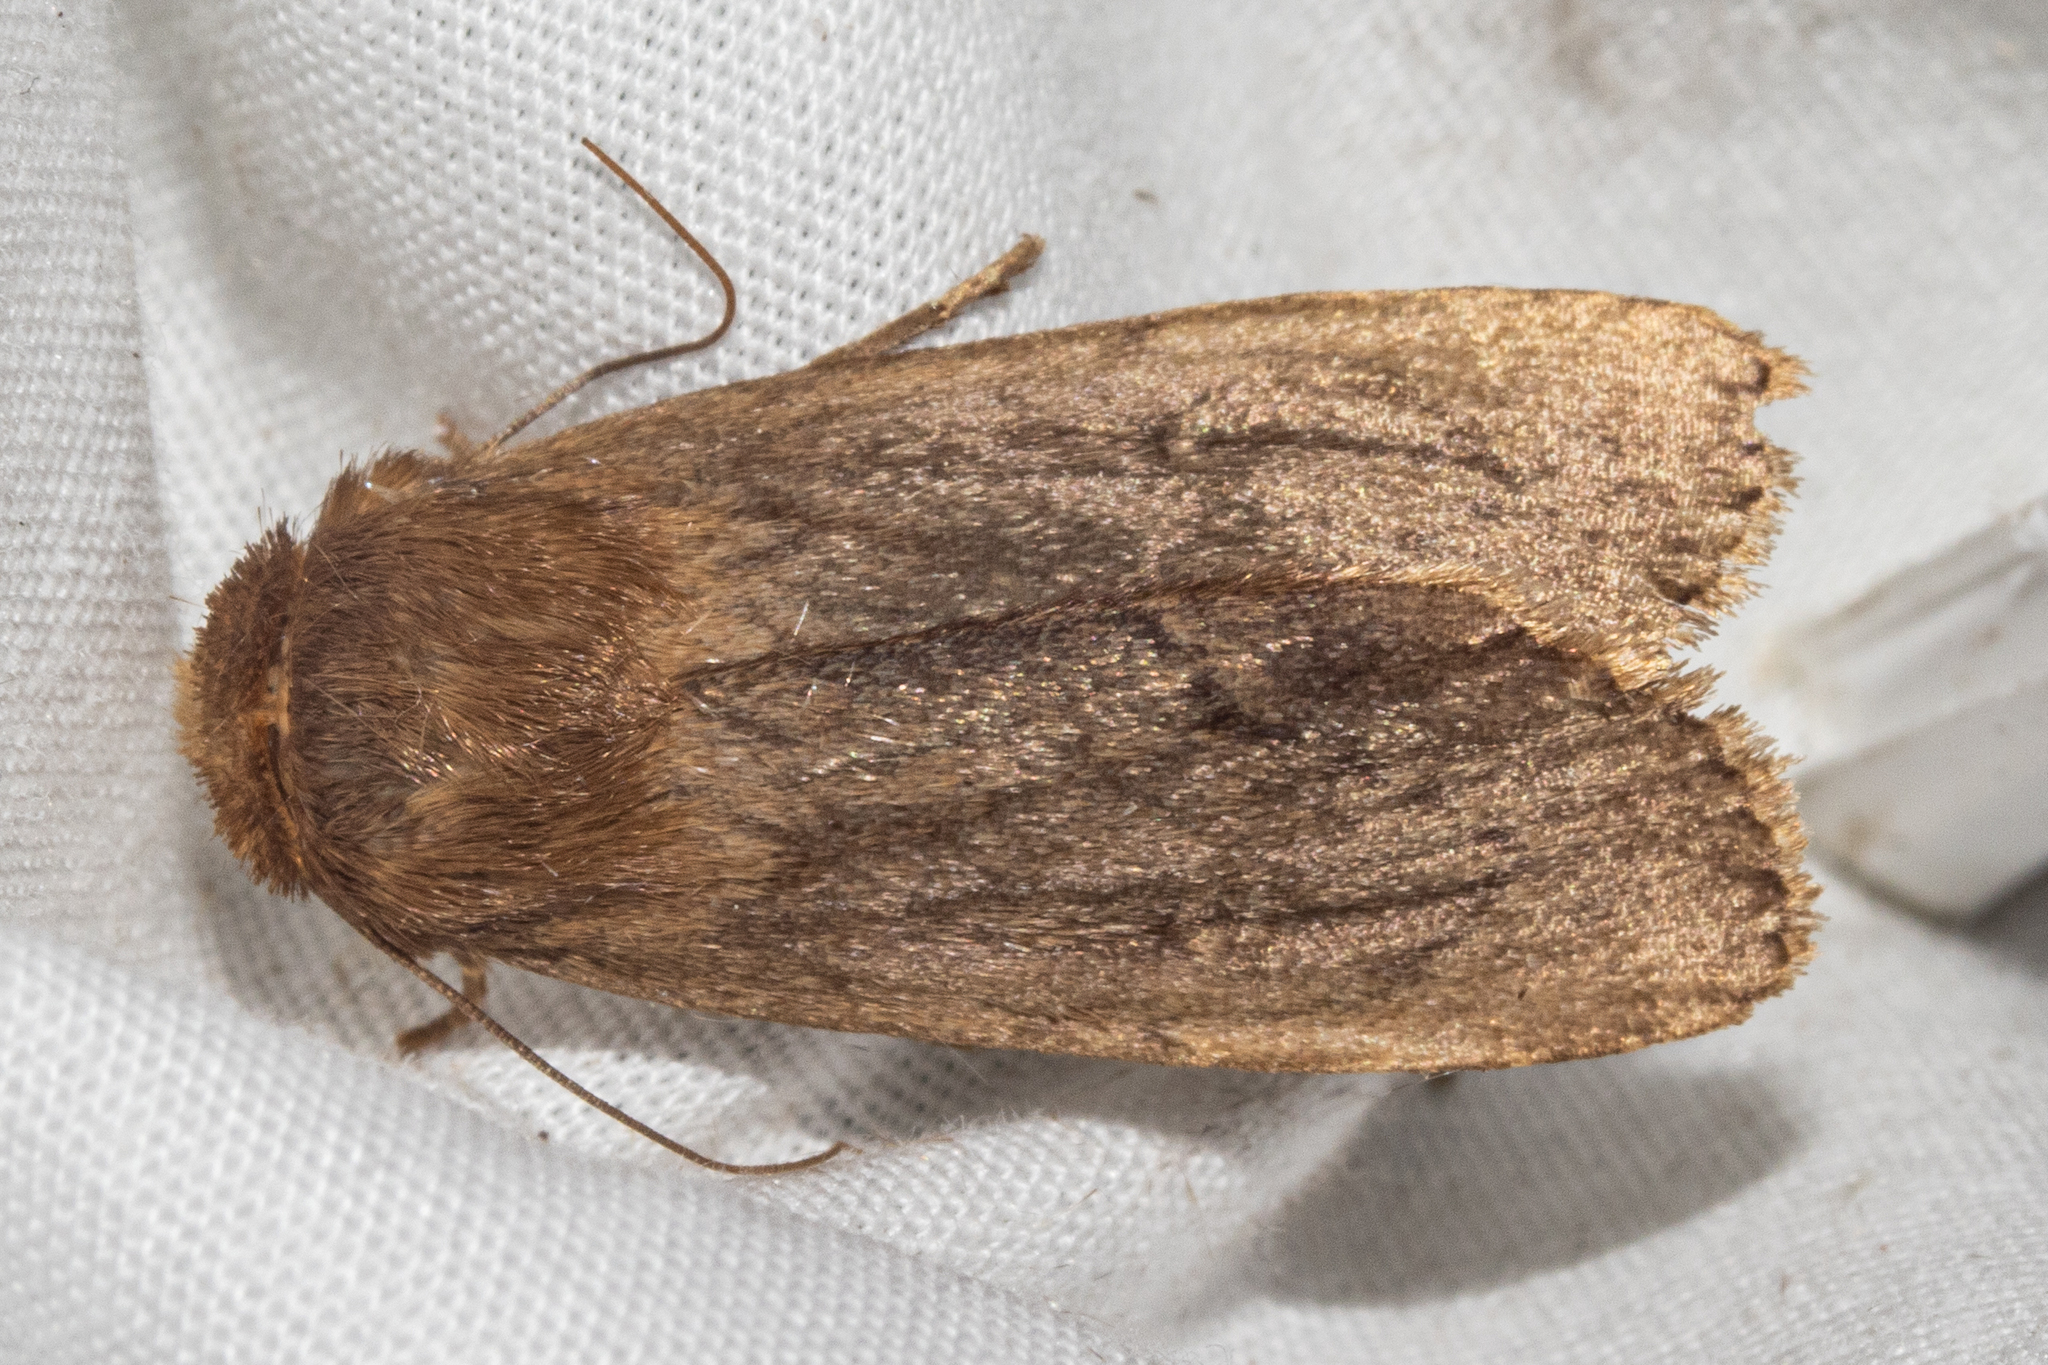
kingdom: Animalia
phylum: Arthropoda
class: Insecta
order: Lepidoptera
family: Noctuidae
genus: Bityla
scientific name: Bityla defigurata
